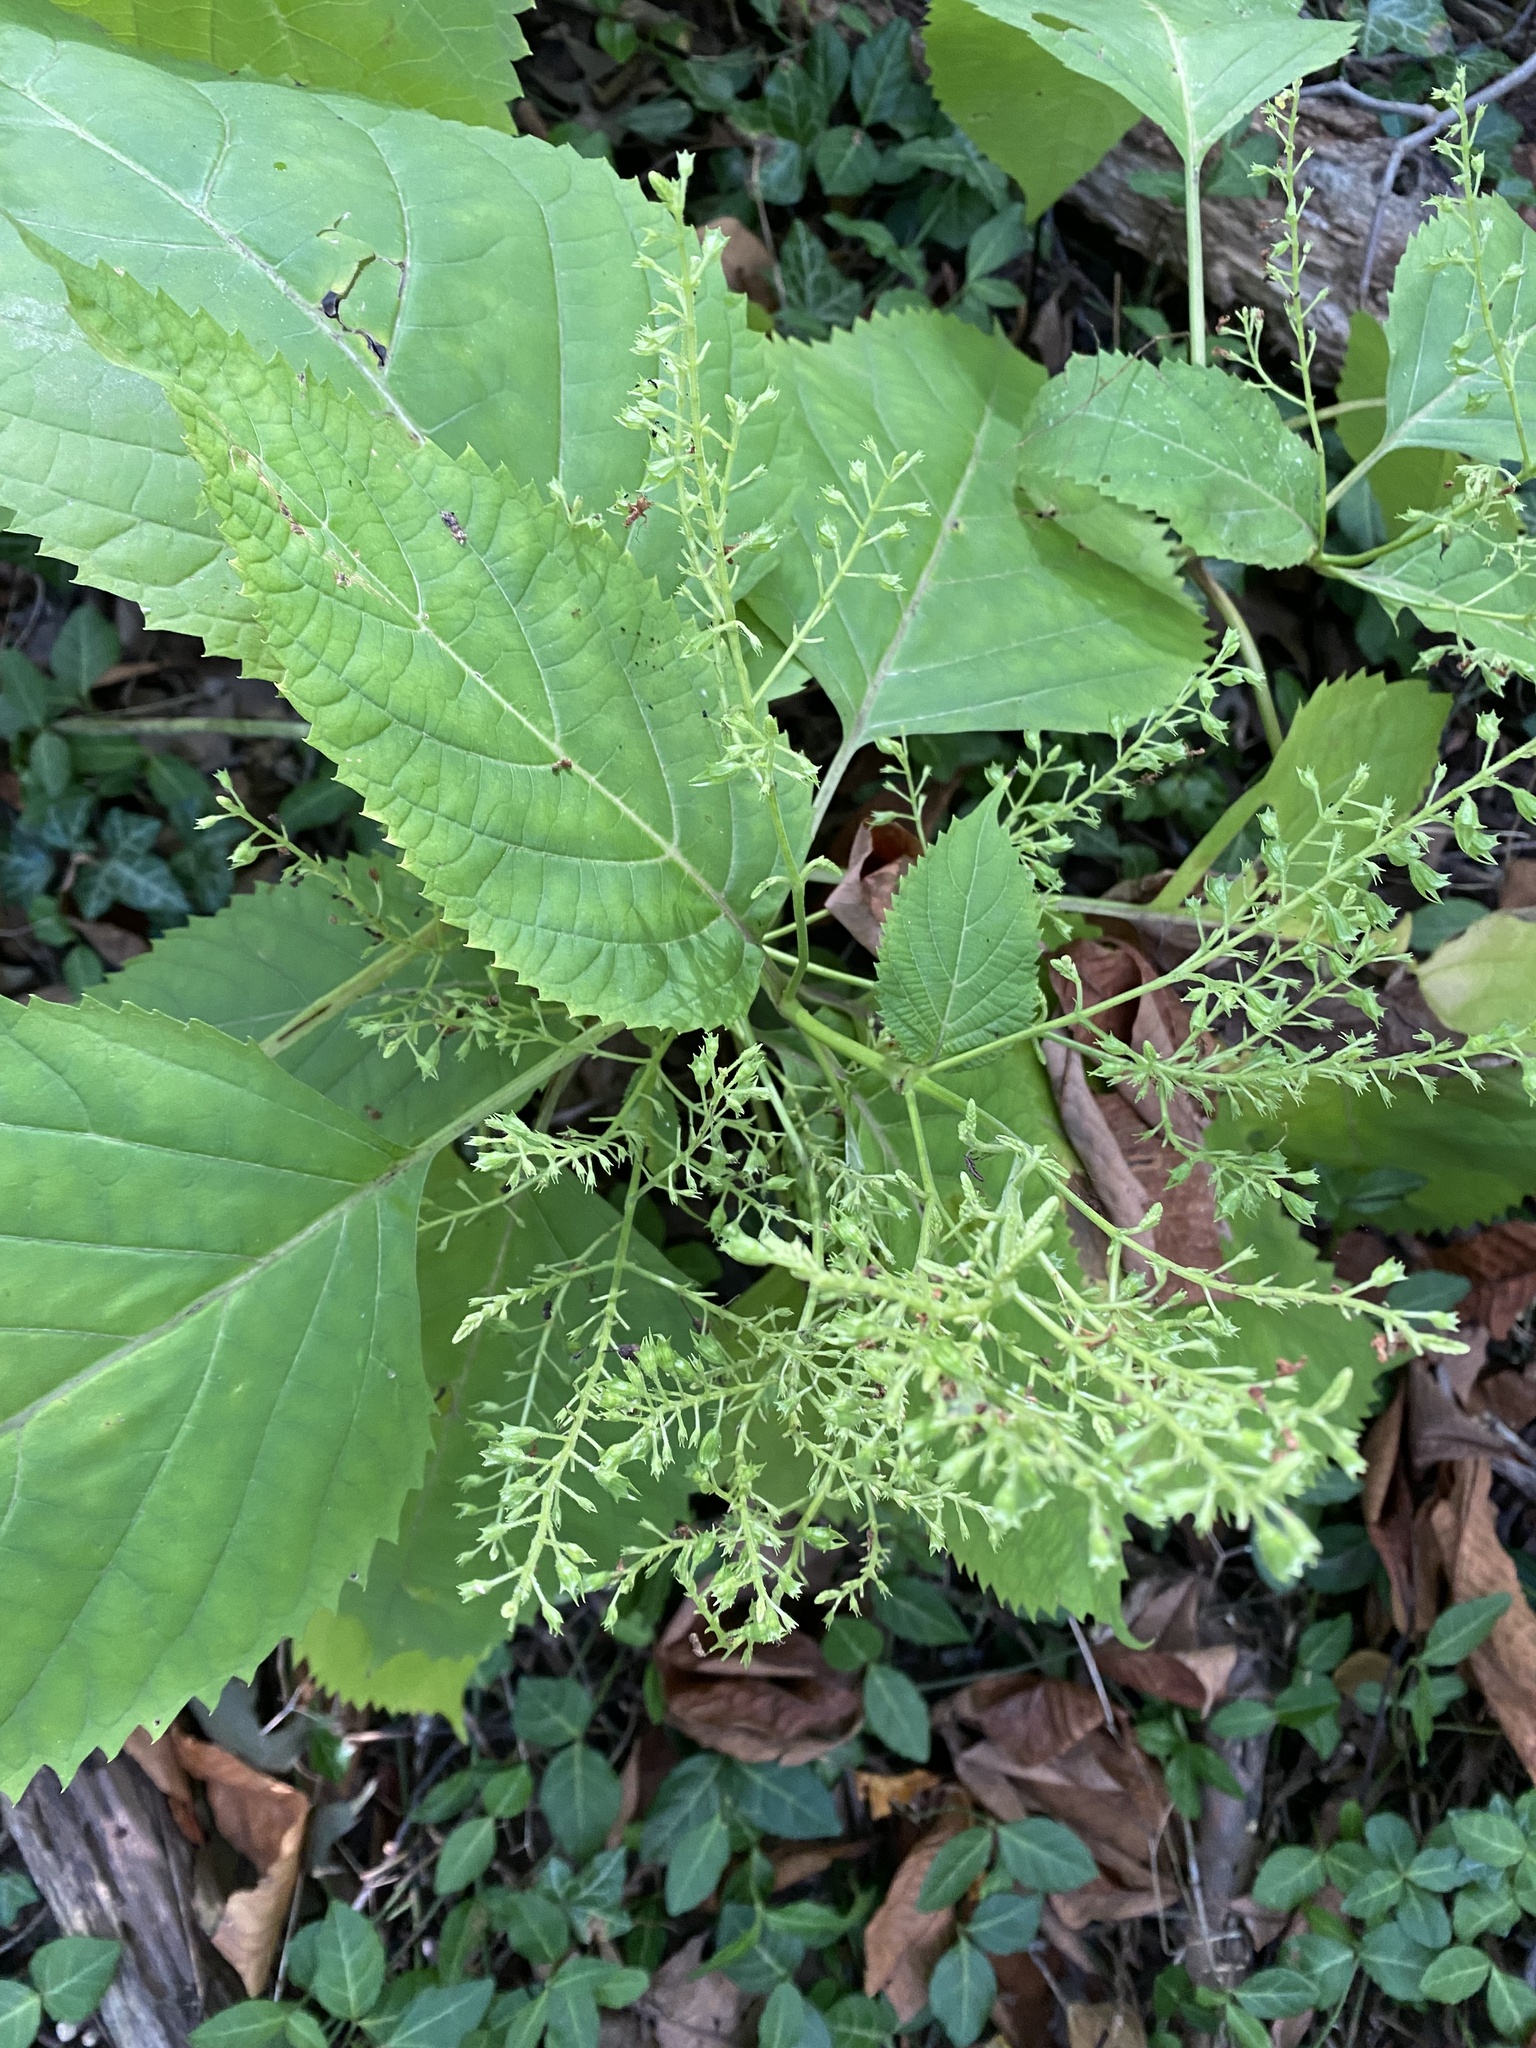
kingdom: Plantae
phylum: Tracheophyta
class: Magnoliopsida
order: Lamiales
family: Lamiaceae
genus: Collinsonia
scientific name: Collinsonia canadensis
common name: Northern horsebalm
